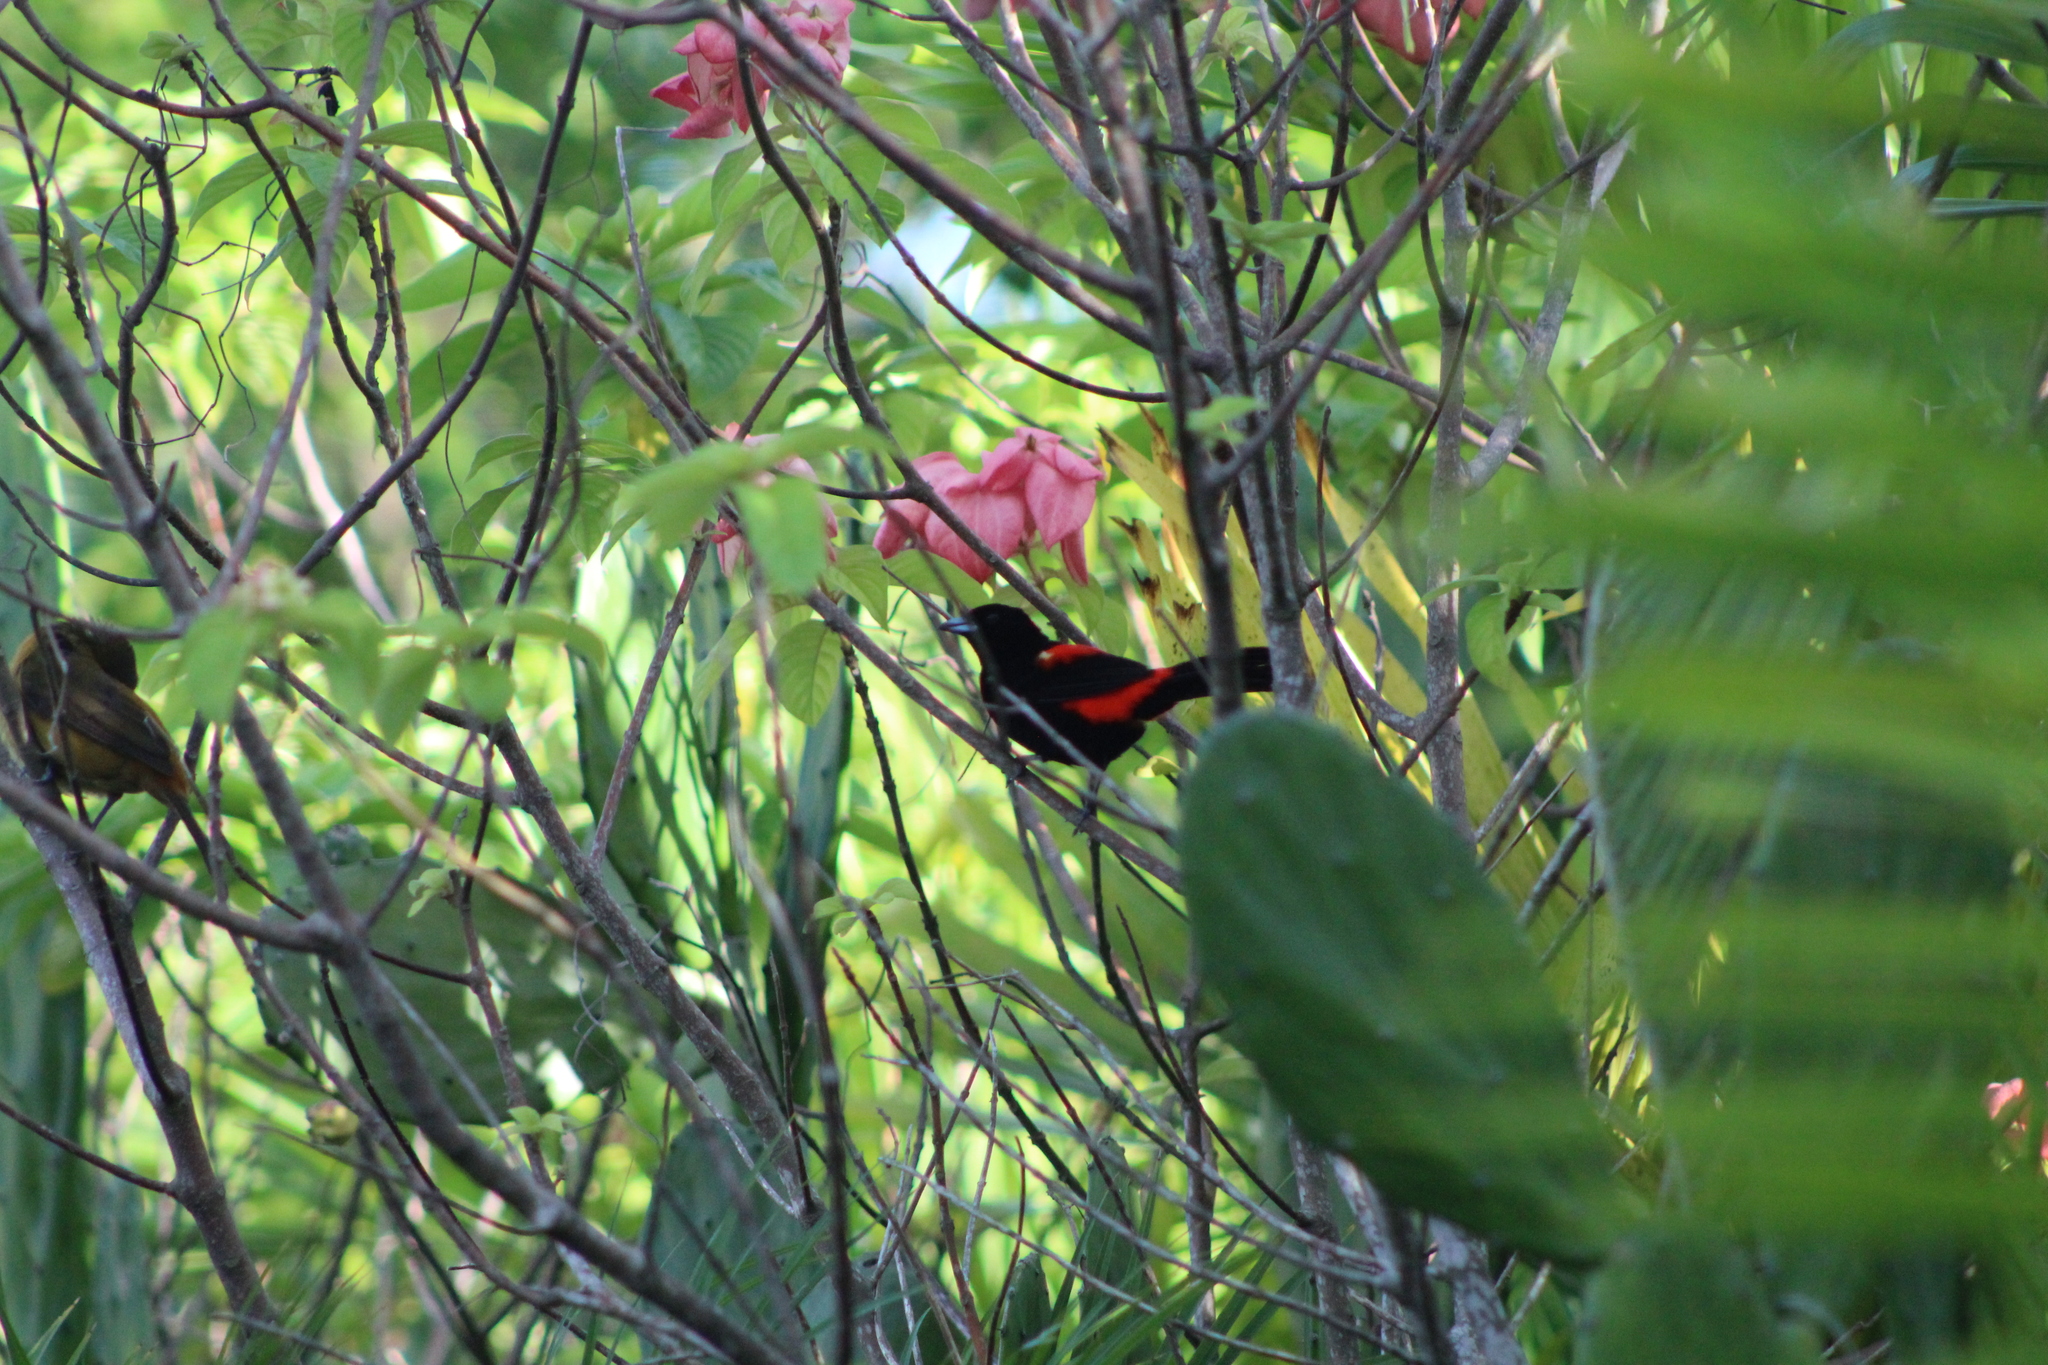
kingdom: Animalia
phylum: Chordata
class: Aves
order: Passeriformes
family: Thraupidae
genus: Ramphocelus
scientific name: Ramphocelus passerinii
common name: Passerini's tanager
